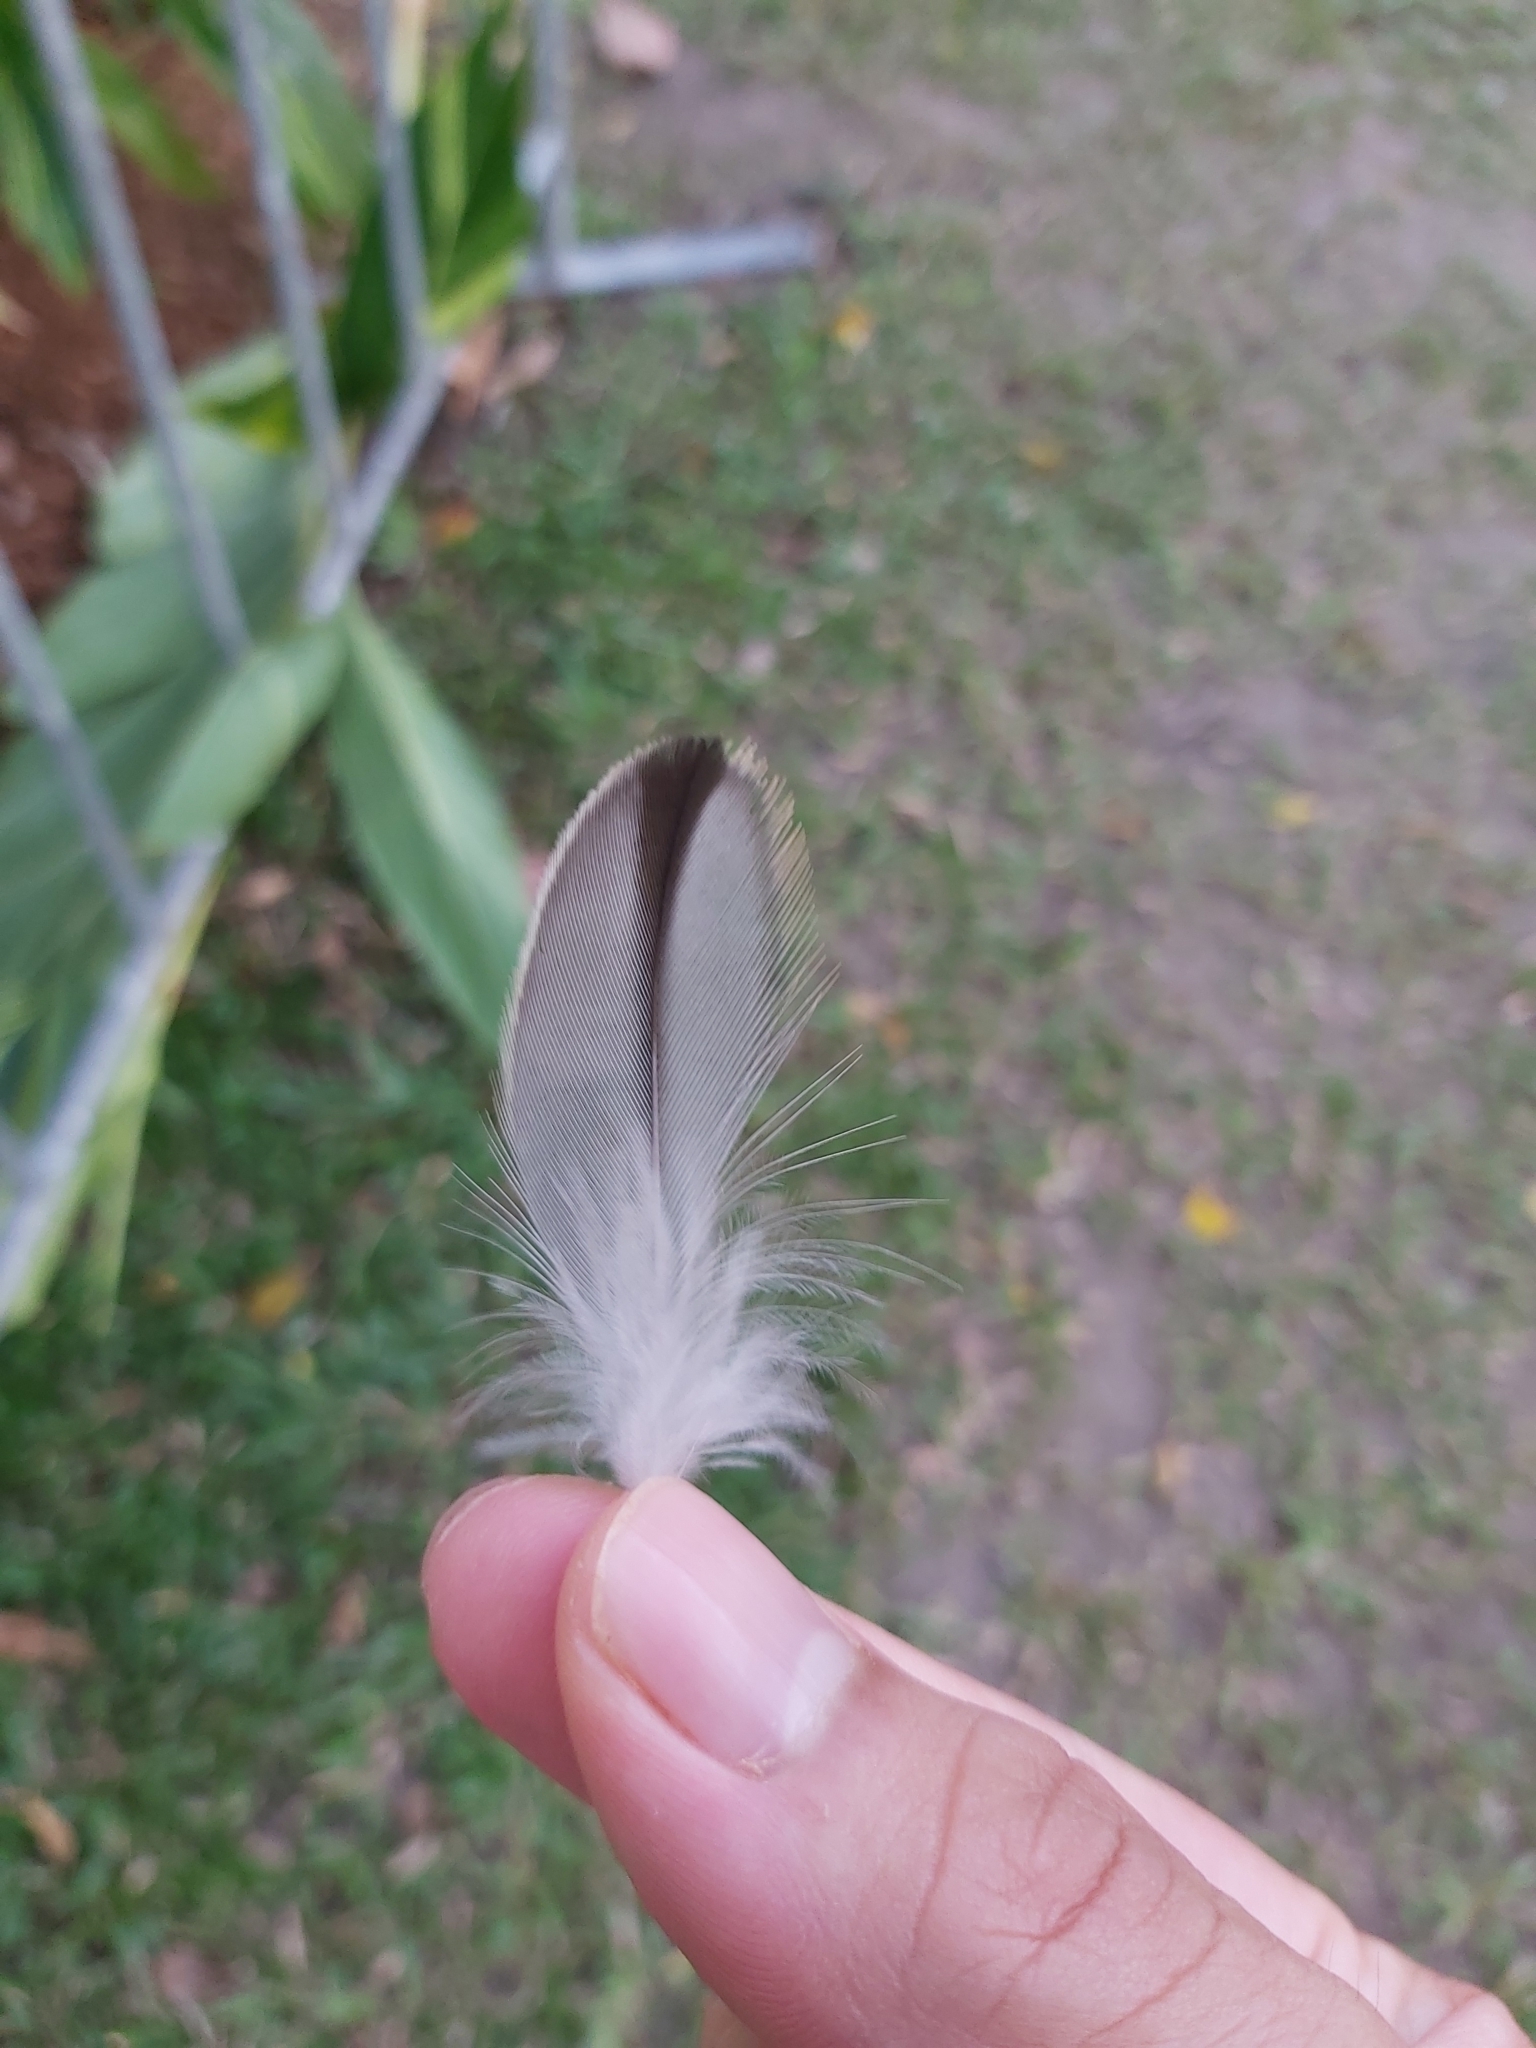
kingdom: Animalia
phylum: Chordata
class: Aves
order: Charadriiformes
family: Burhinidae
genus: Burhinus
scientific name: Burhinus grallarius
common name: Bush stone-curlew
